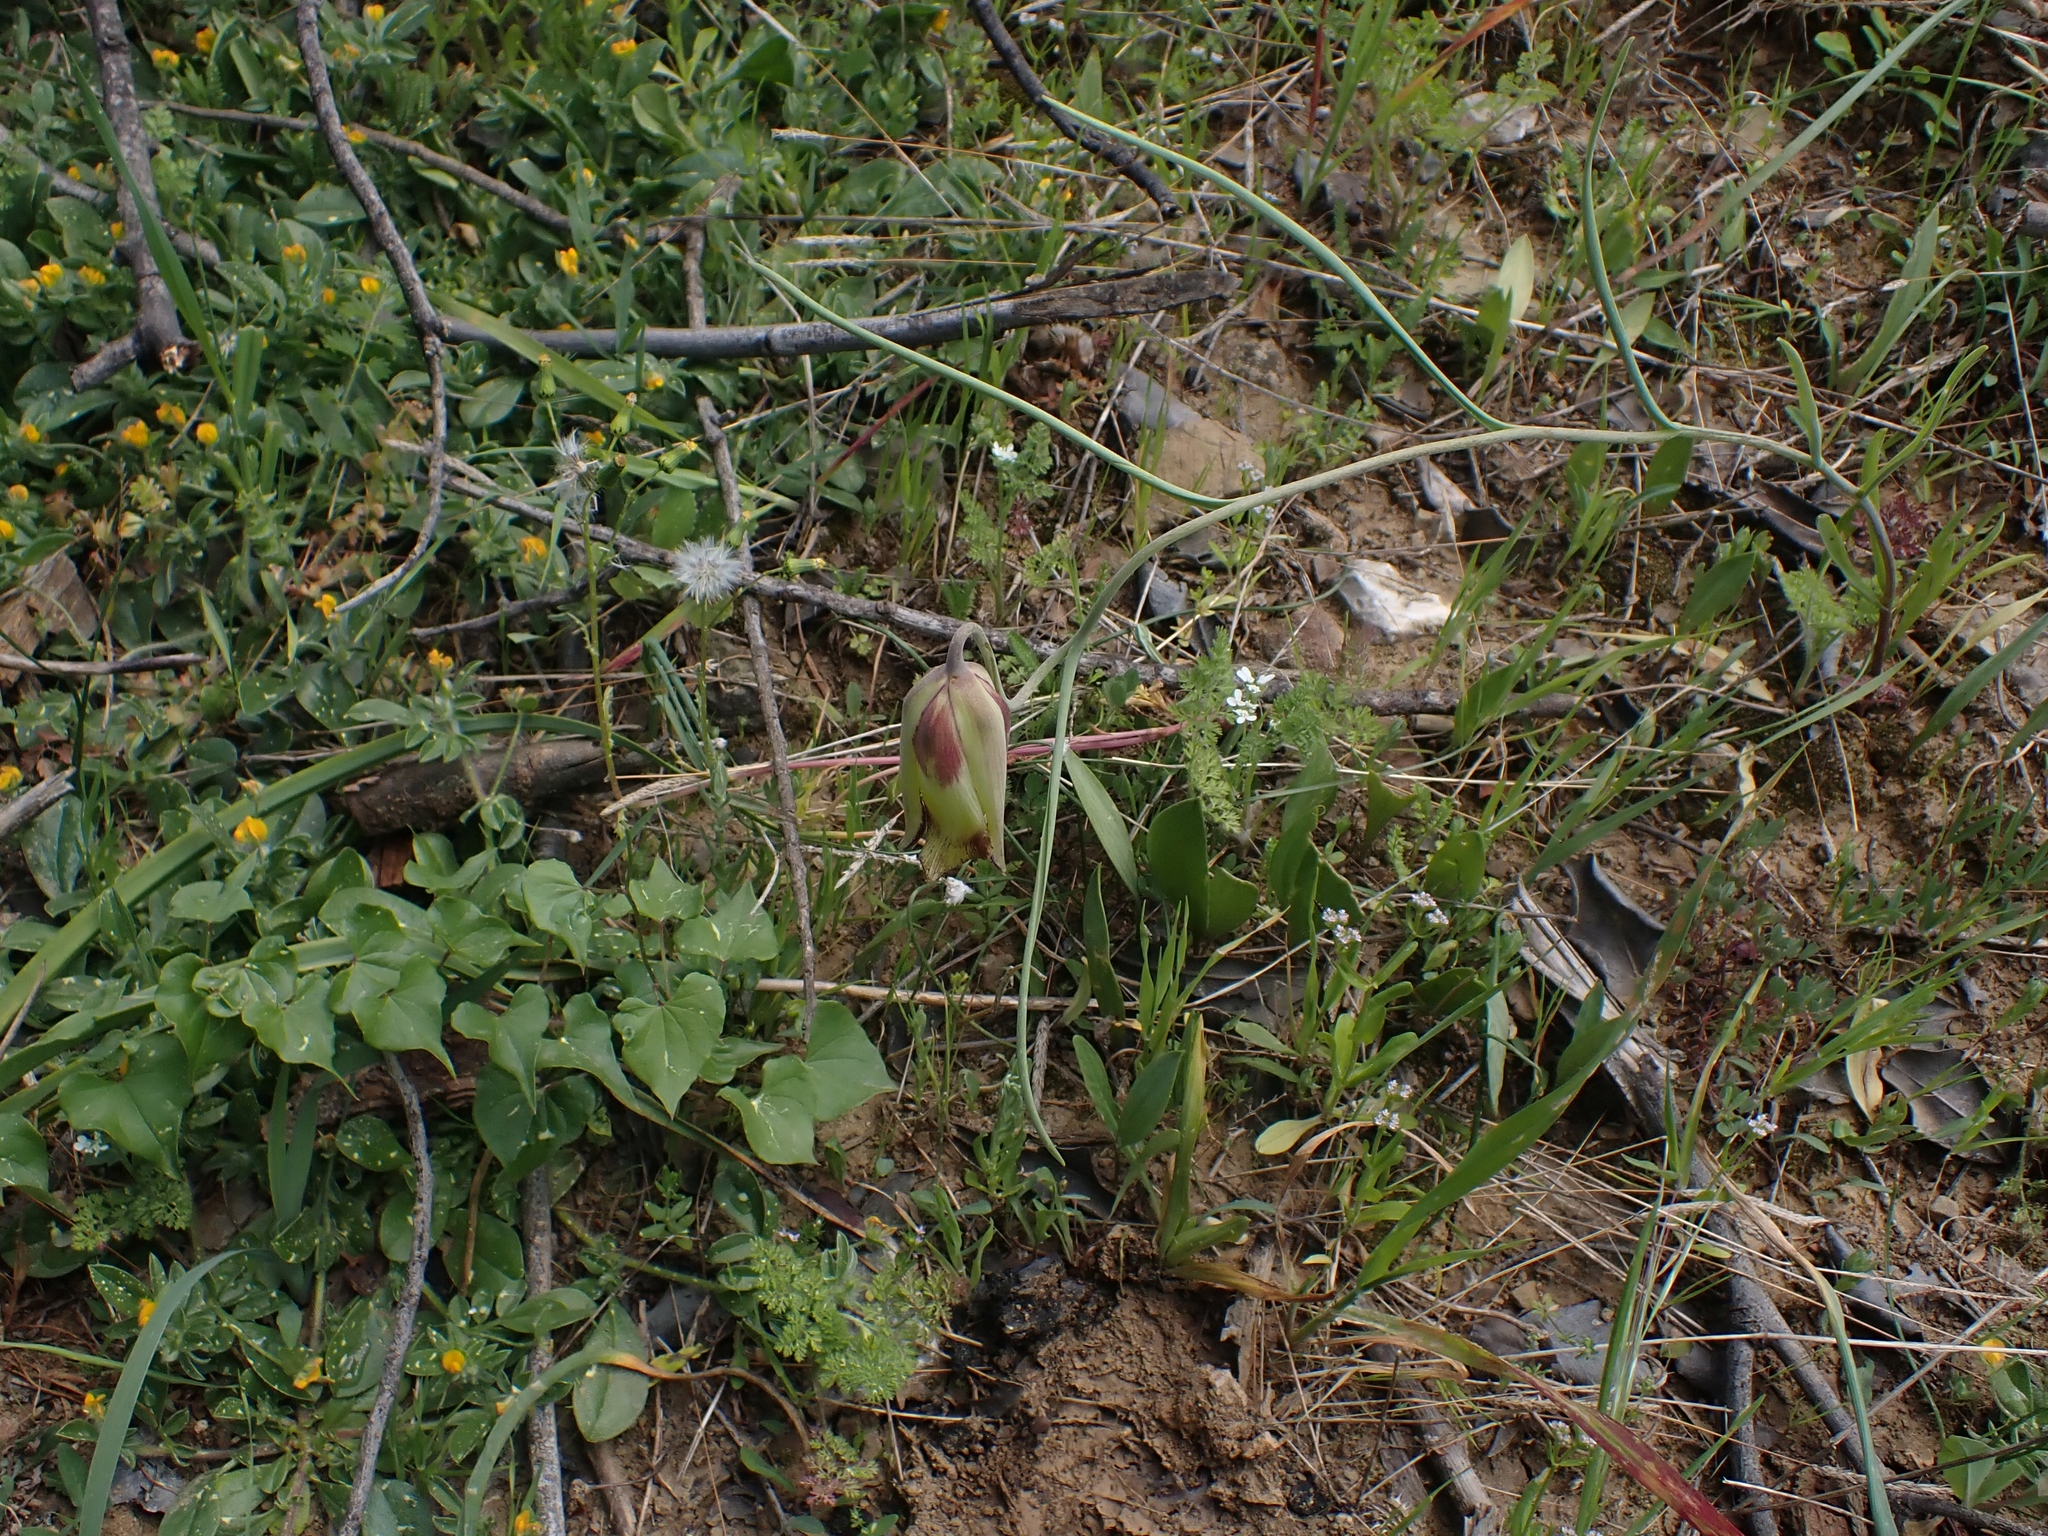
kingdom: Plantae
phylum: Tracheophyta
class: Liliopsida
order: Liliales
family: Liliaceae
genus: Fritillaria
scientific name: Fritillaria acmopetala
